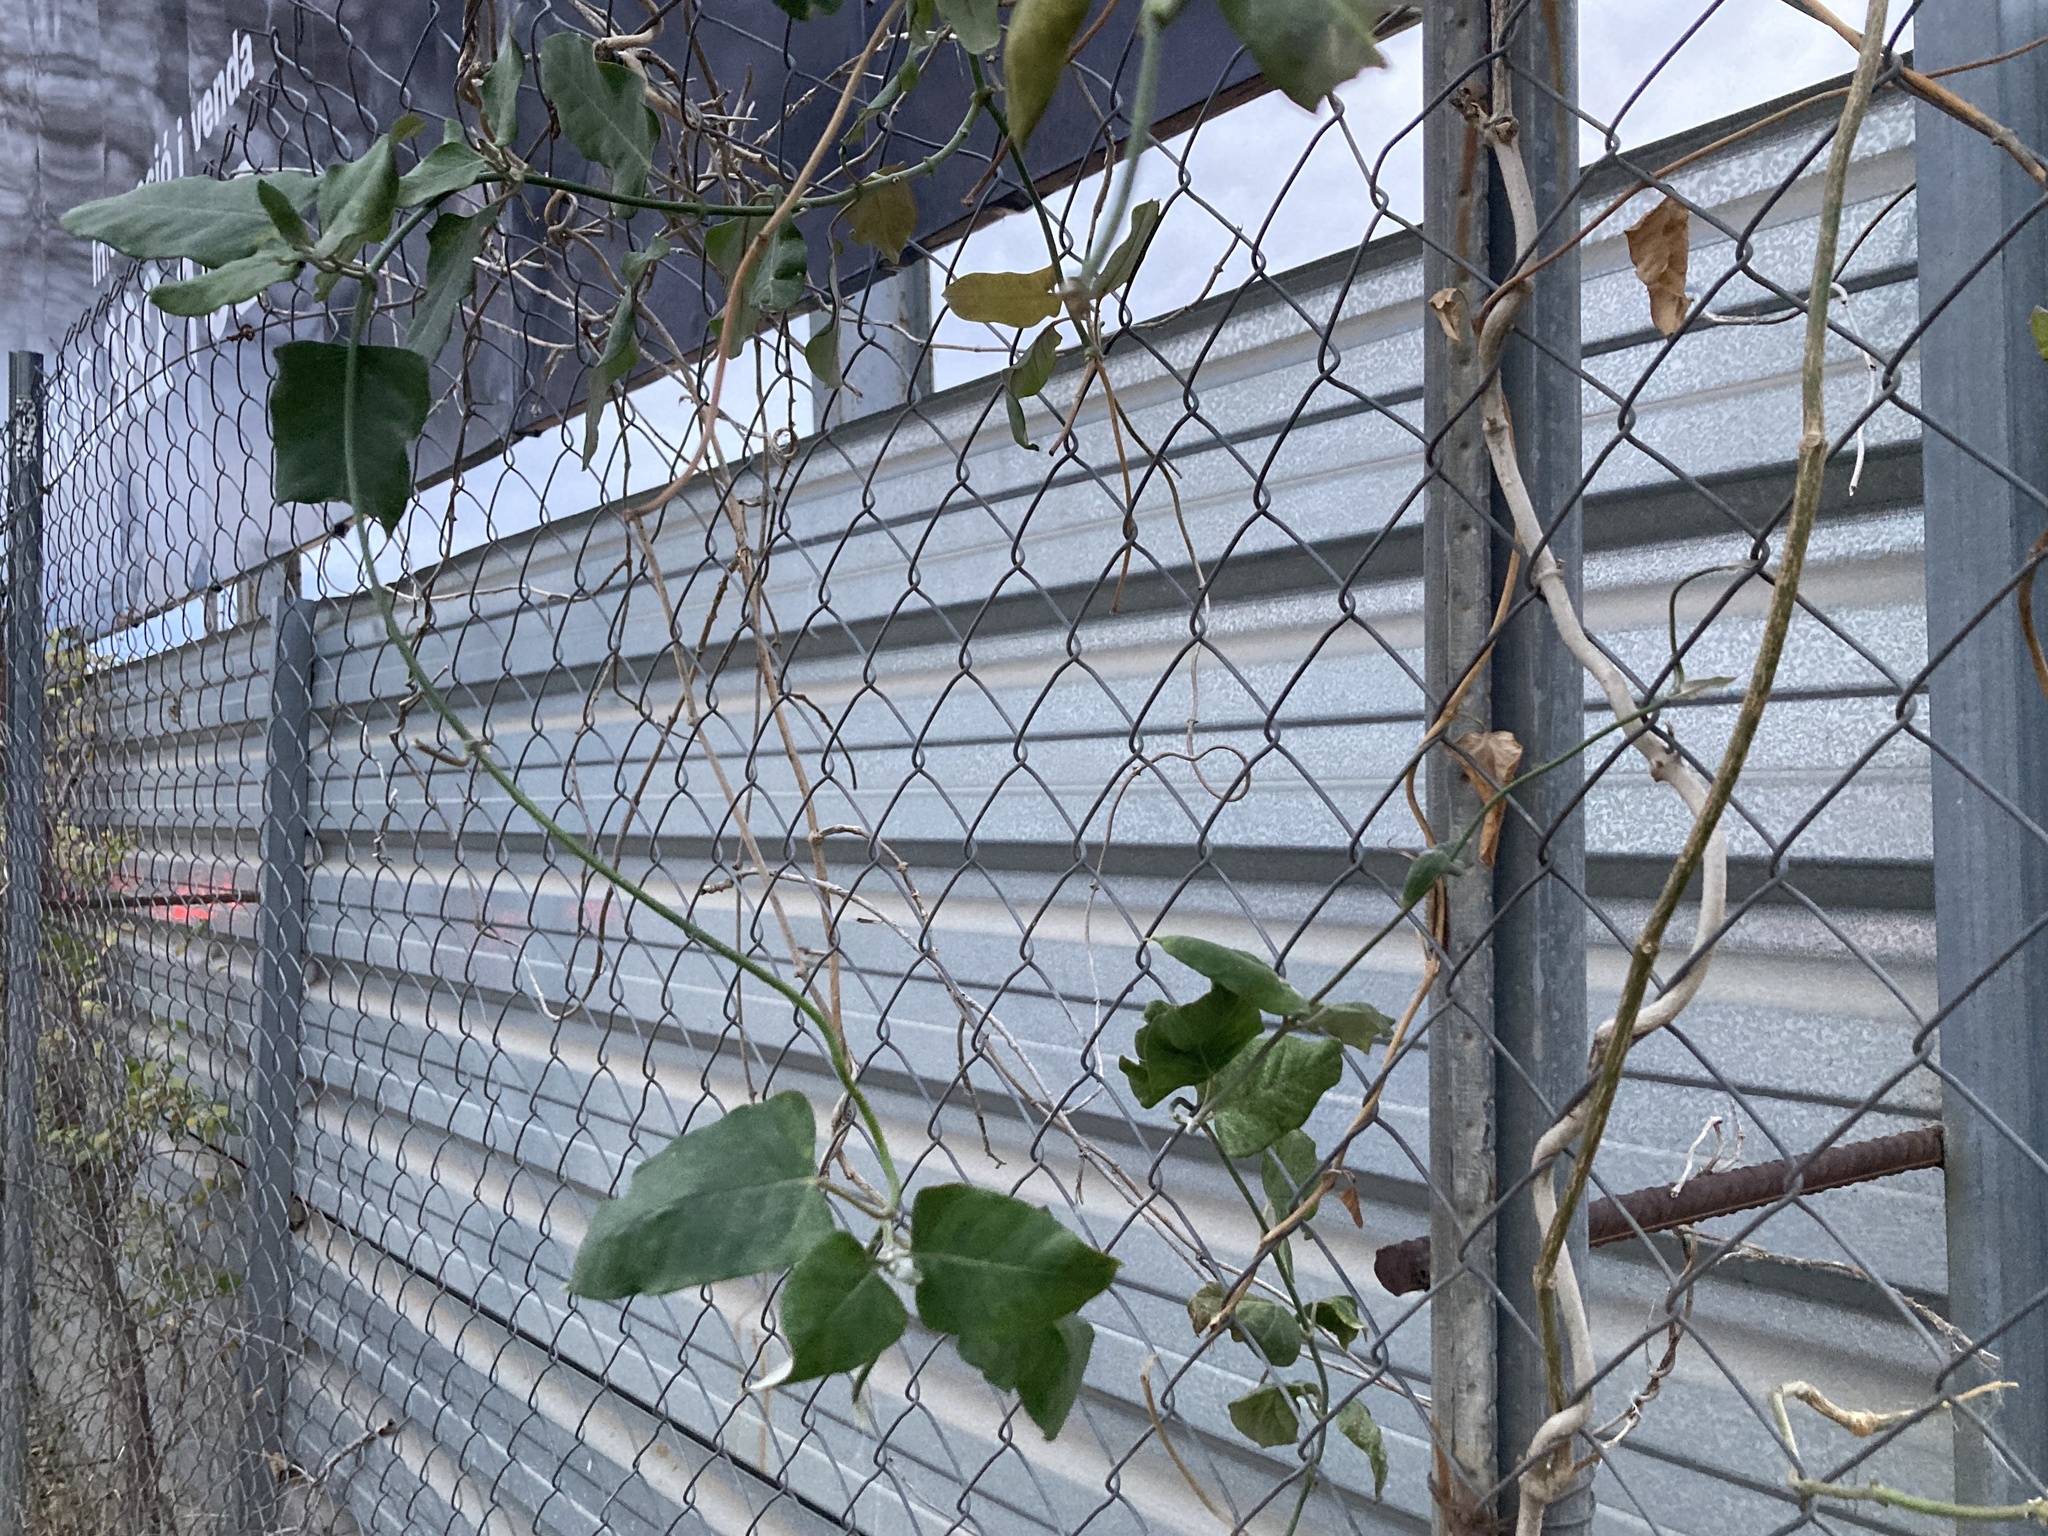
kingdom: Plantae
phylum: Tracheophyta
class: Magnoliopsida
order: Gentianales
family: Apocynaceae
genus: Araujia
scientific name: Araujia sericifera
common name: White bladderflower
